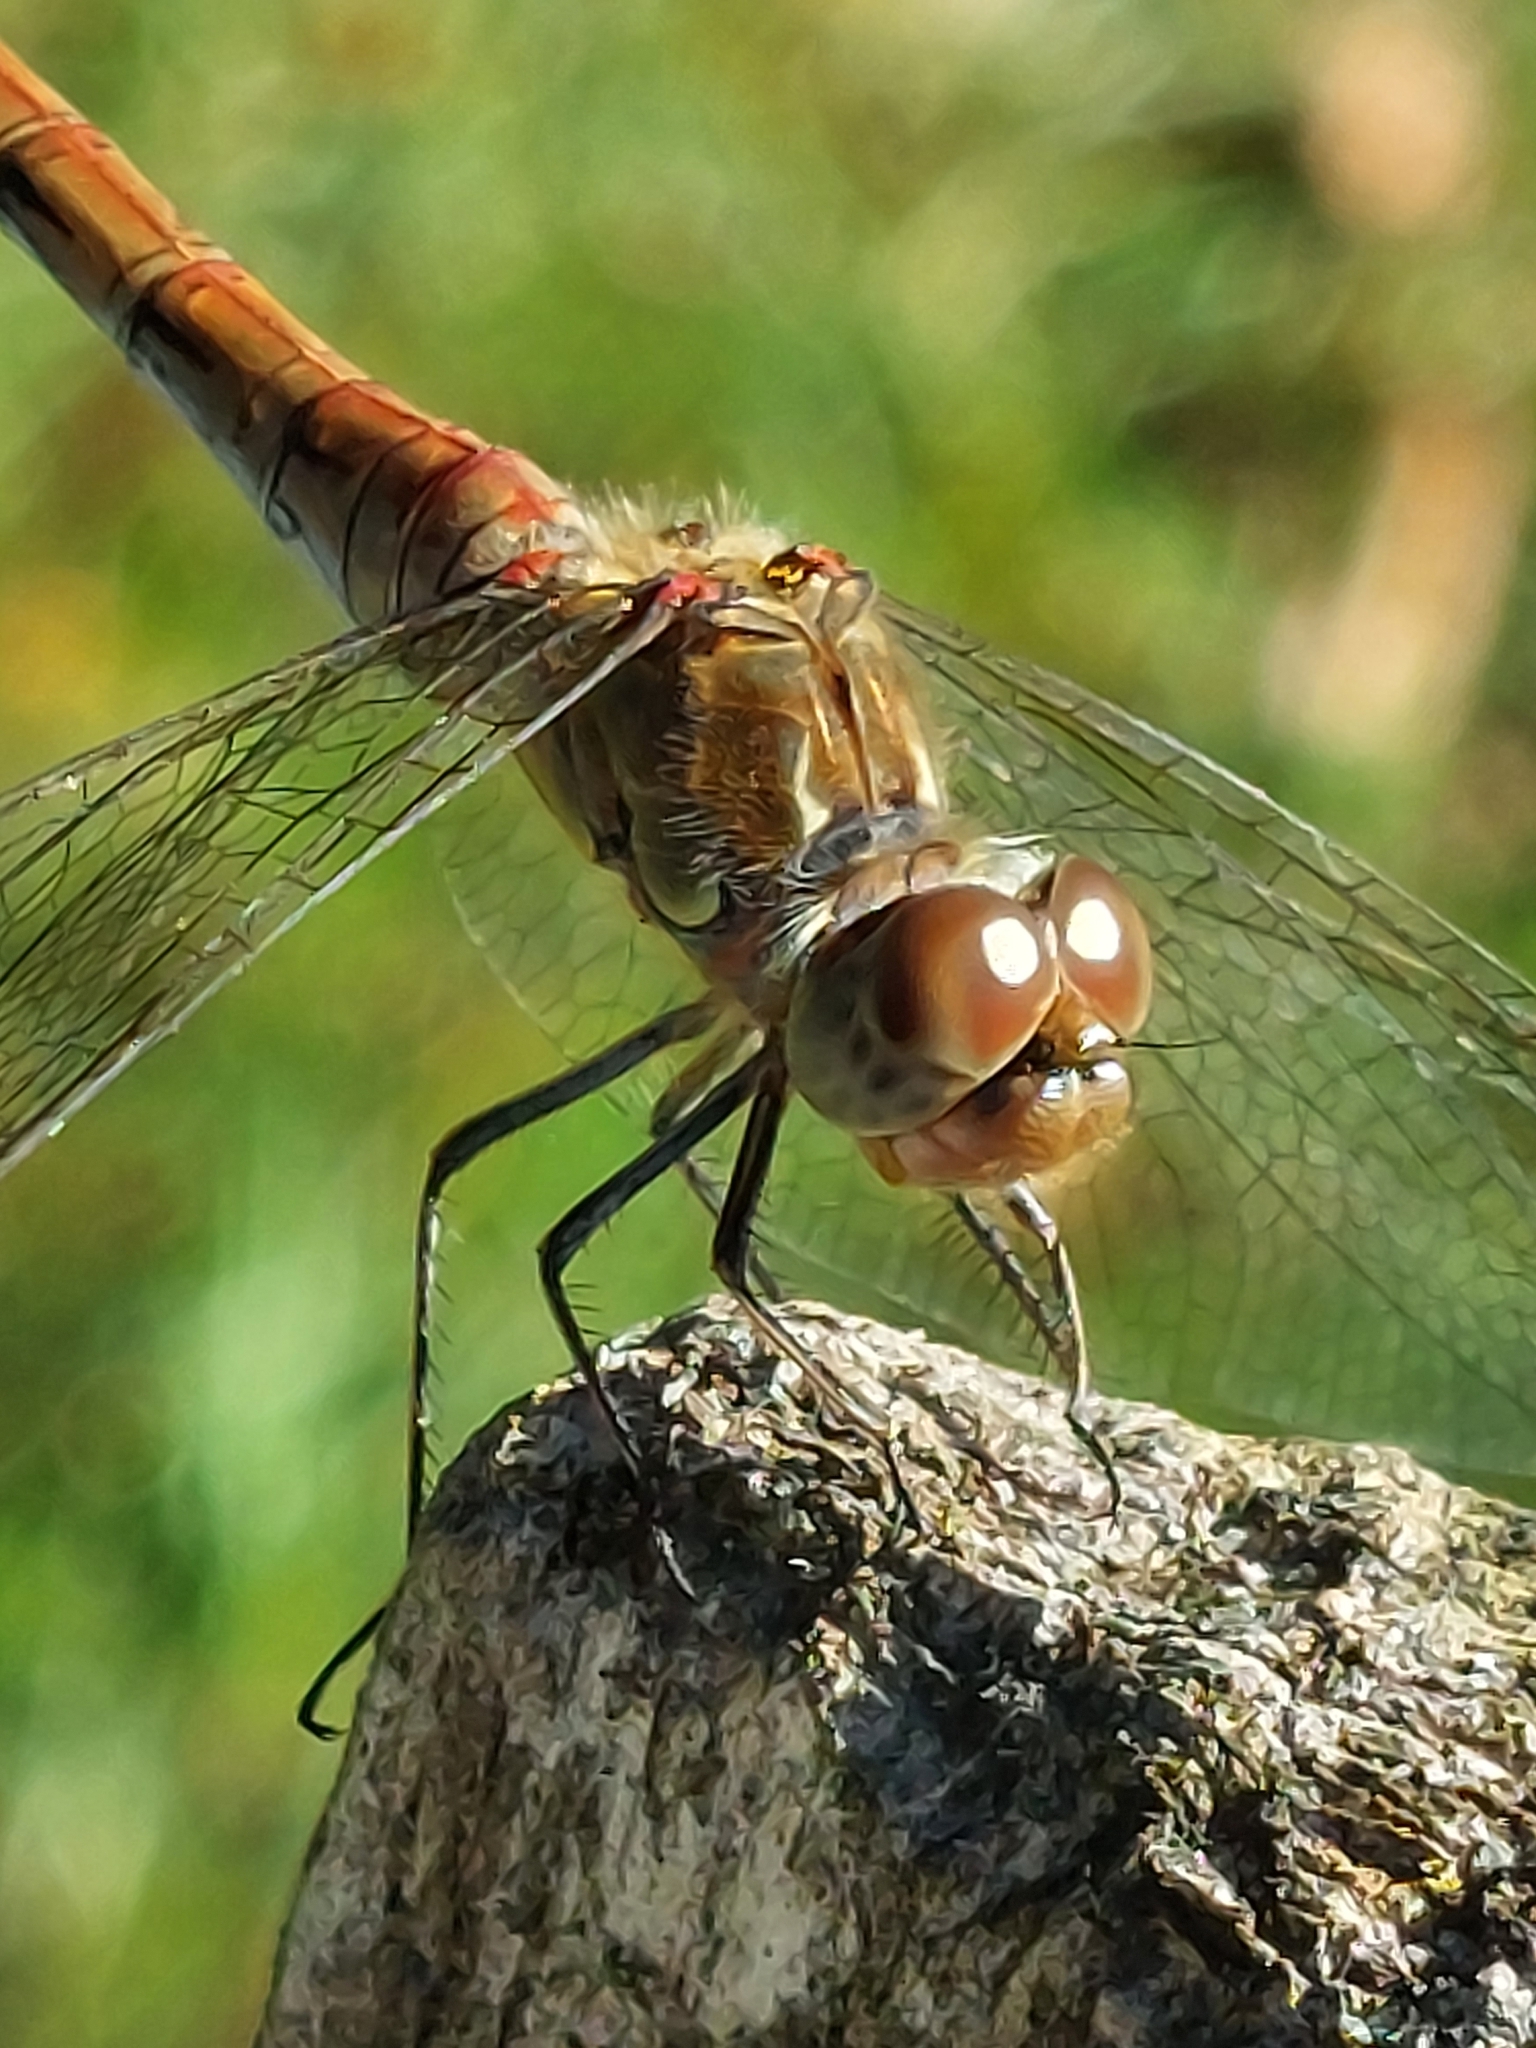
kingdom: Animalia
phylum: Arthropoda
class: Insecta
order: Odonata
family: Libellulidae
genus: Sympetrum
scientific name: Sympetrum striolatum
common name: Common darter
